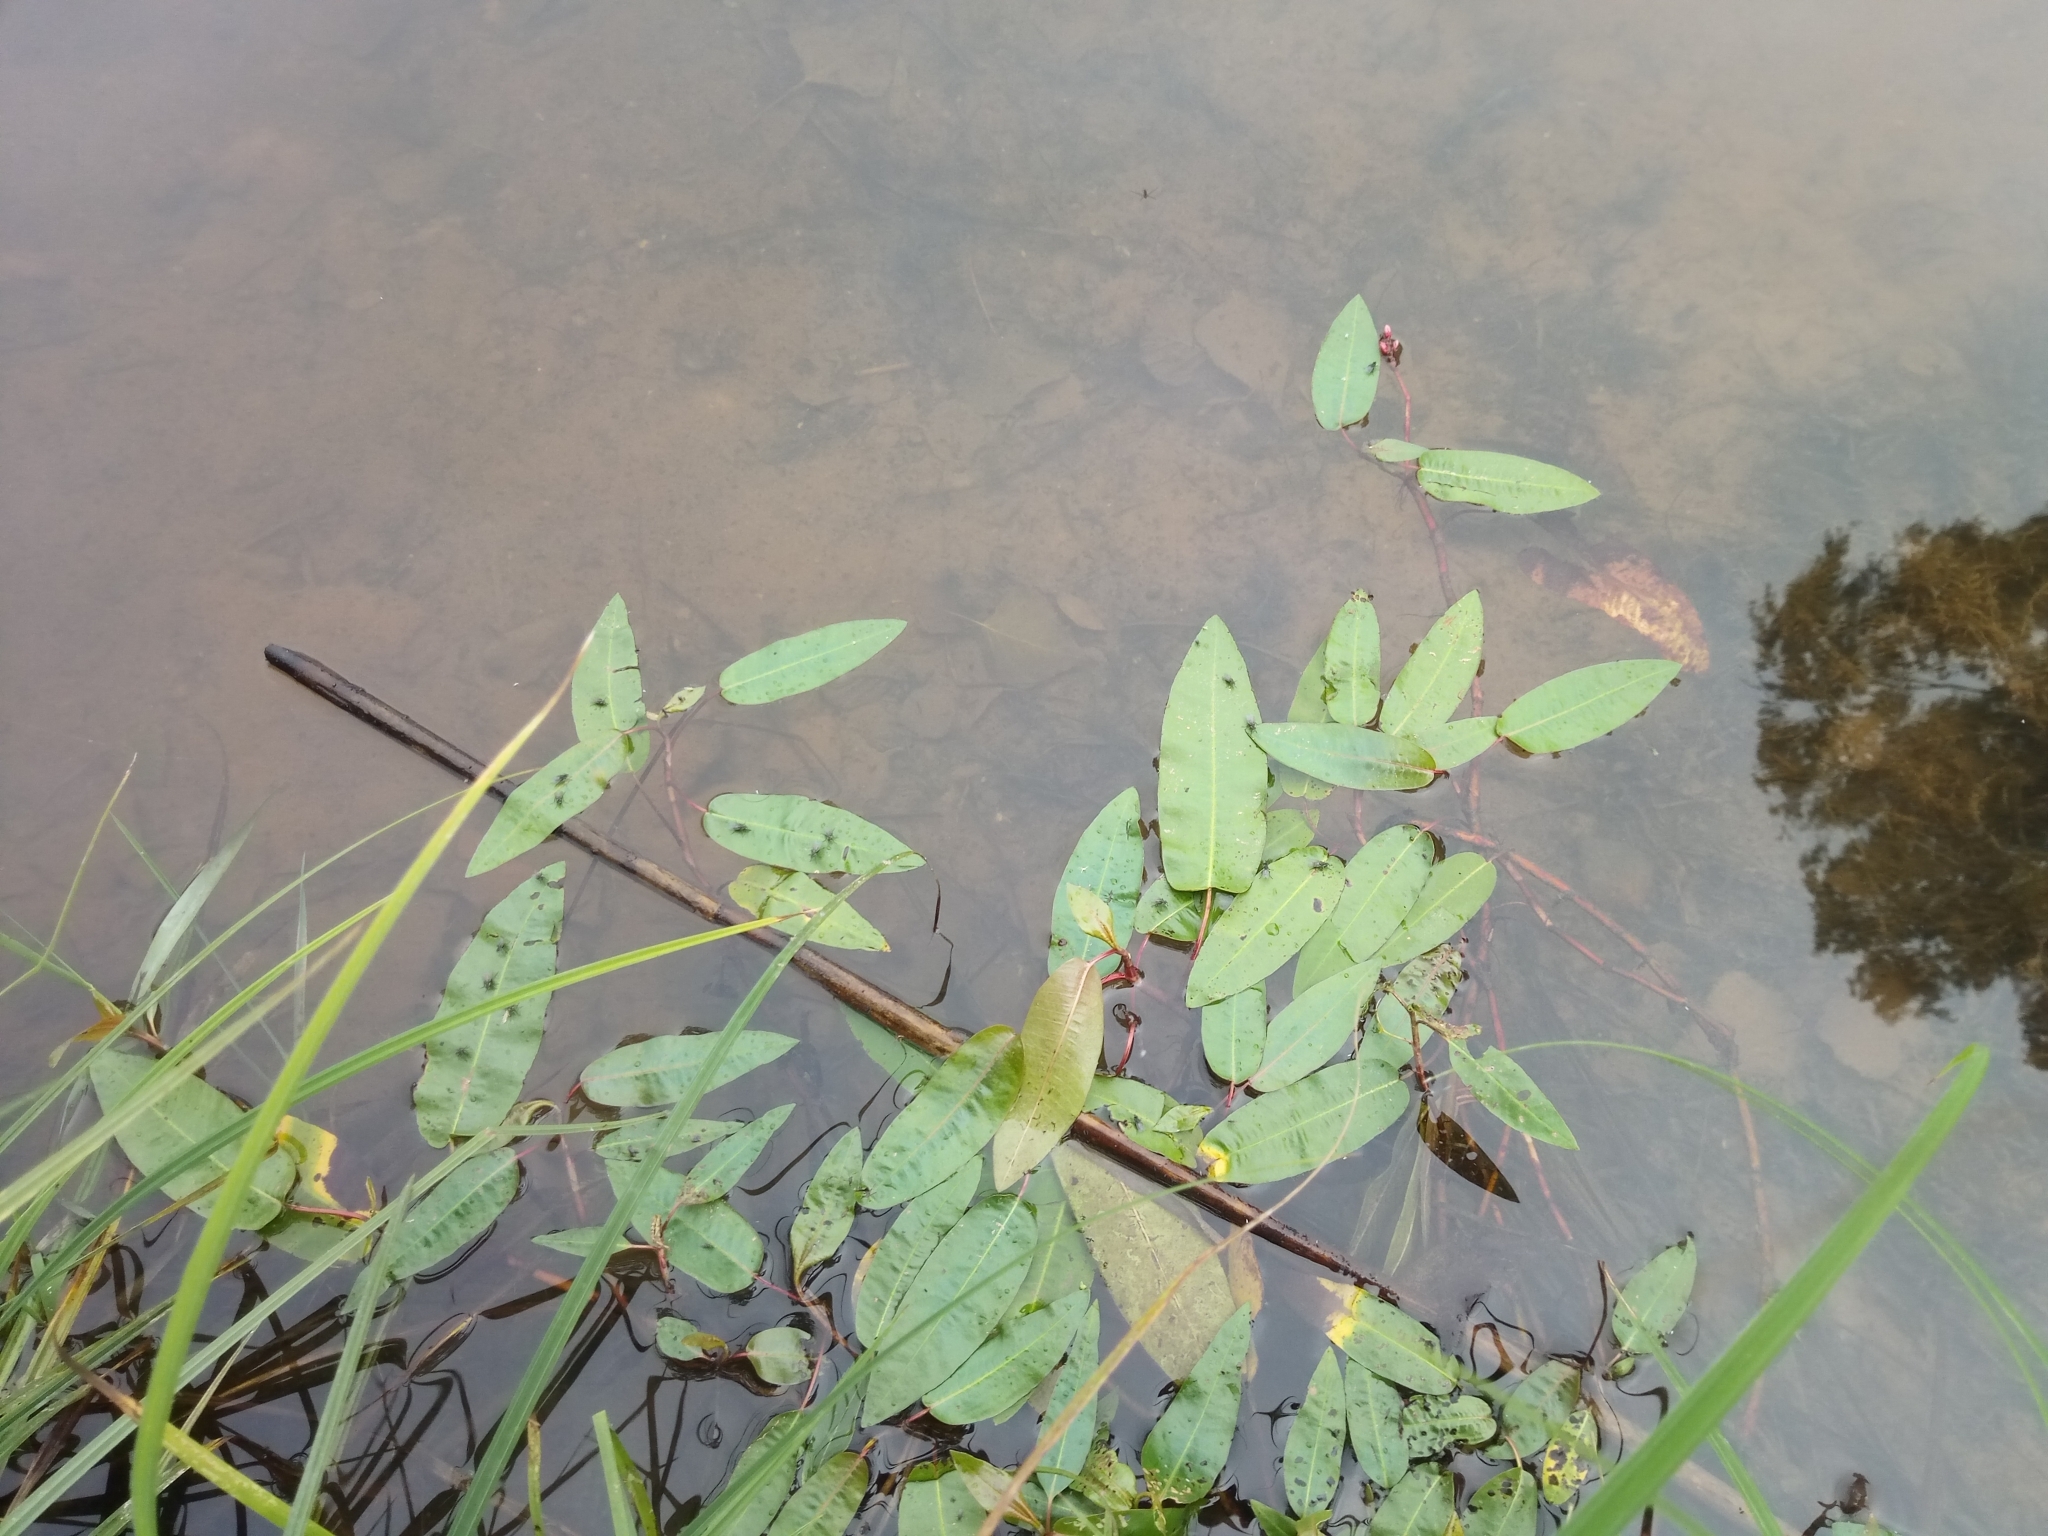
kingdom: Plantae
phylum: Tracheophyta
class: Magnoliopsida
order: Caryophyllales
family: Polygonaceae
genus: Persicaria
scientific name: Persicaria amphibia
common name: Amphibious bistort
